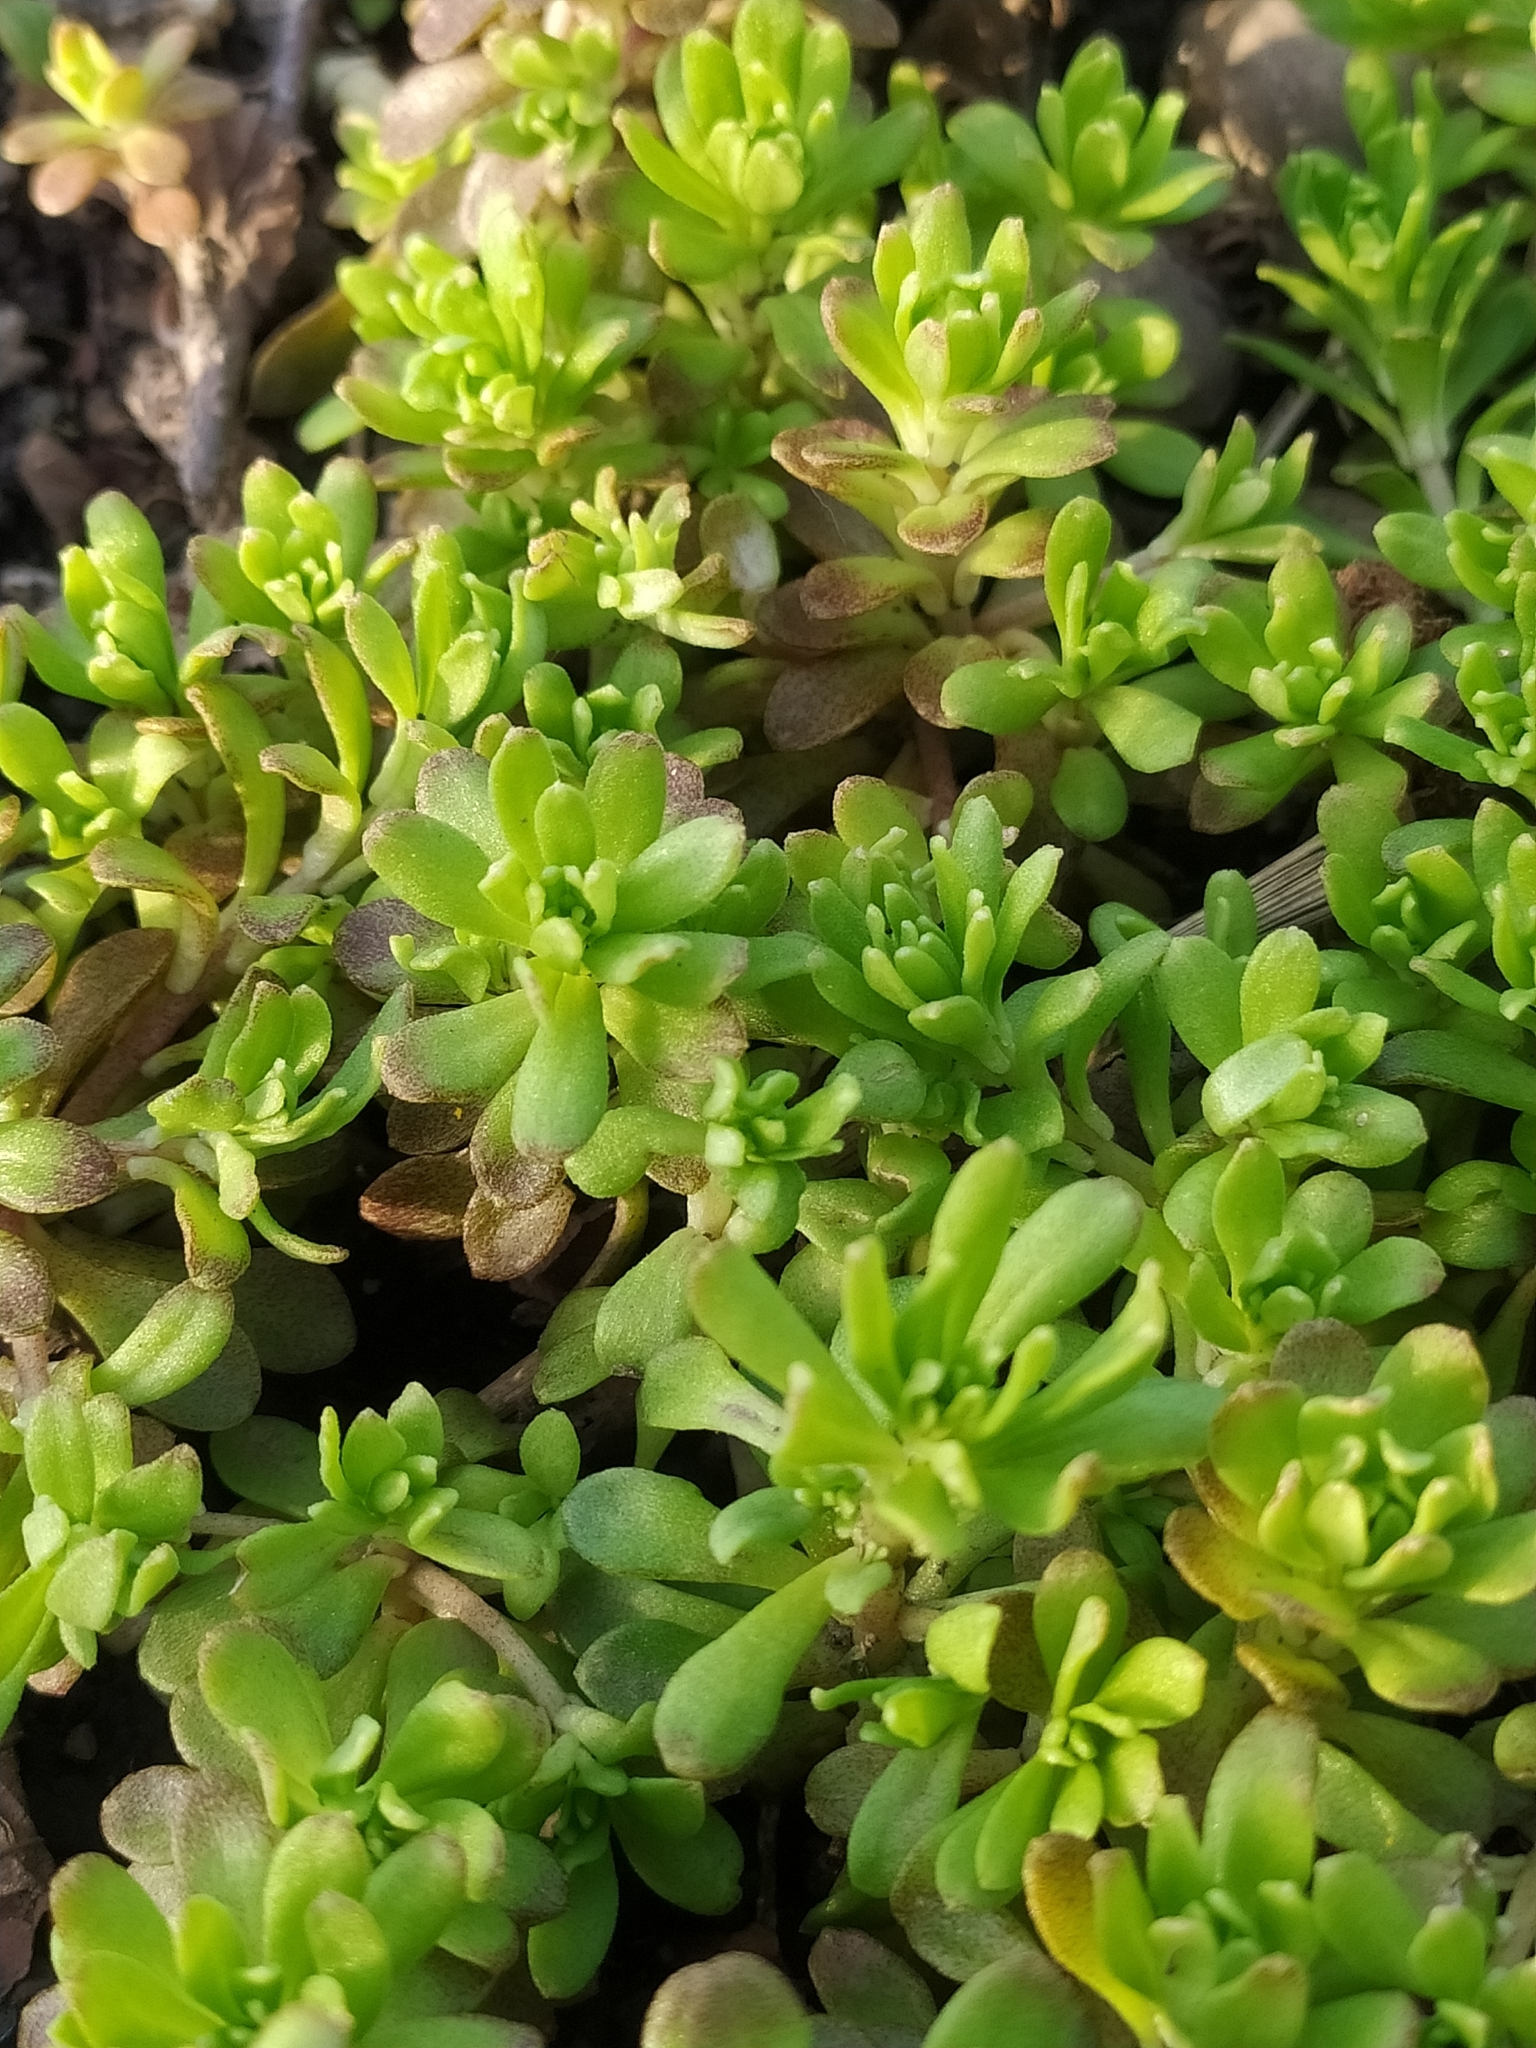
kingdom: Plantae
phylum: Tracheophyta
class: Magnoliopsida
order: Saxifragales
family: Crassulaceae
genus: Sedum
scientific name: Sedum cepaea
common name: Pink stonecrop
